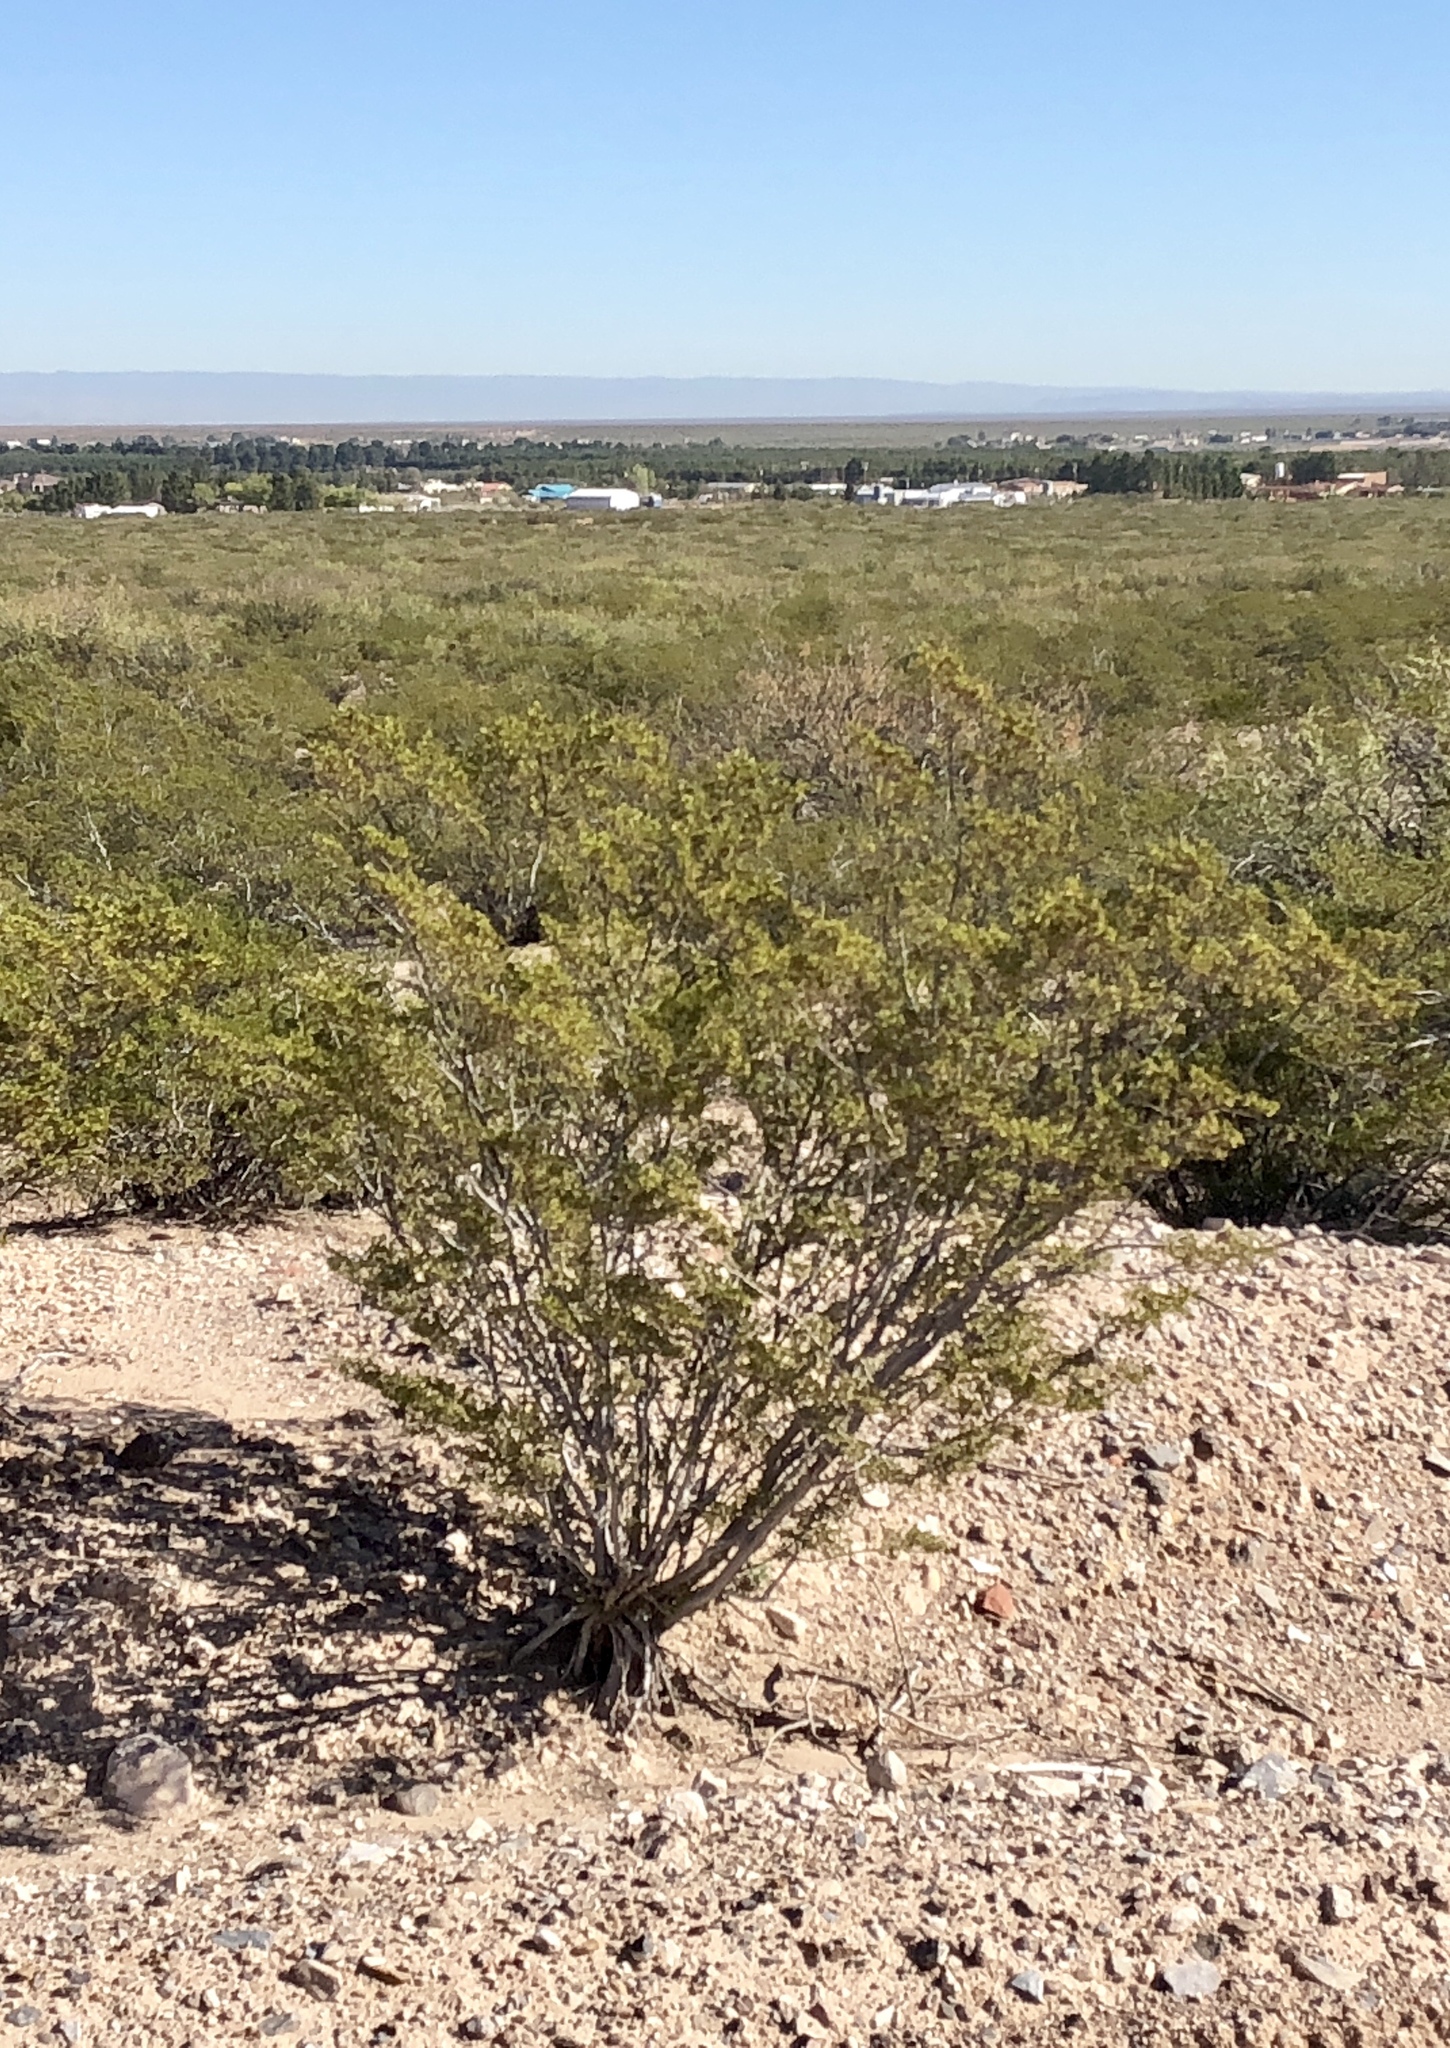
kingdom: Plantae
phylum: Tracheophyta
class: Magnoliopsida
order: Zygophyllales
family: Zygophyllaceae
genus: Larrea
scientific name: Larrea tridentata
